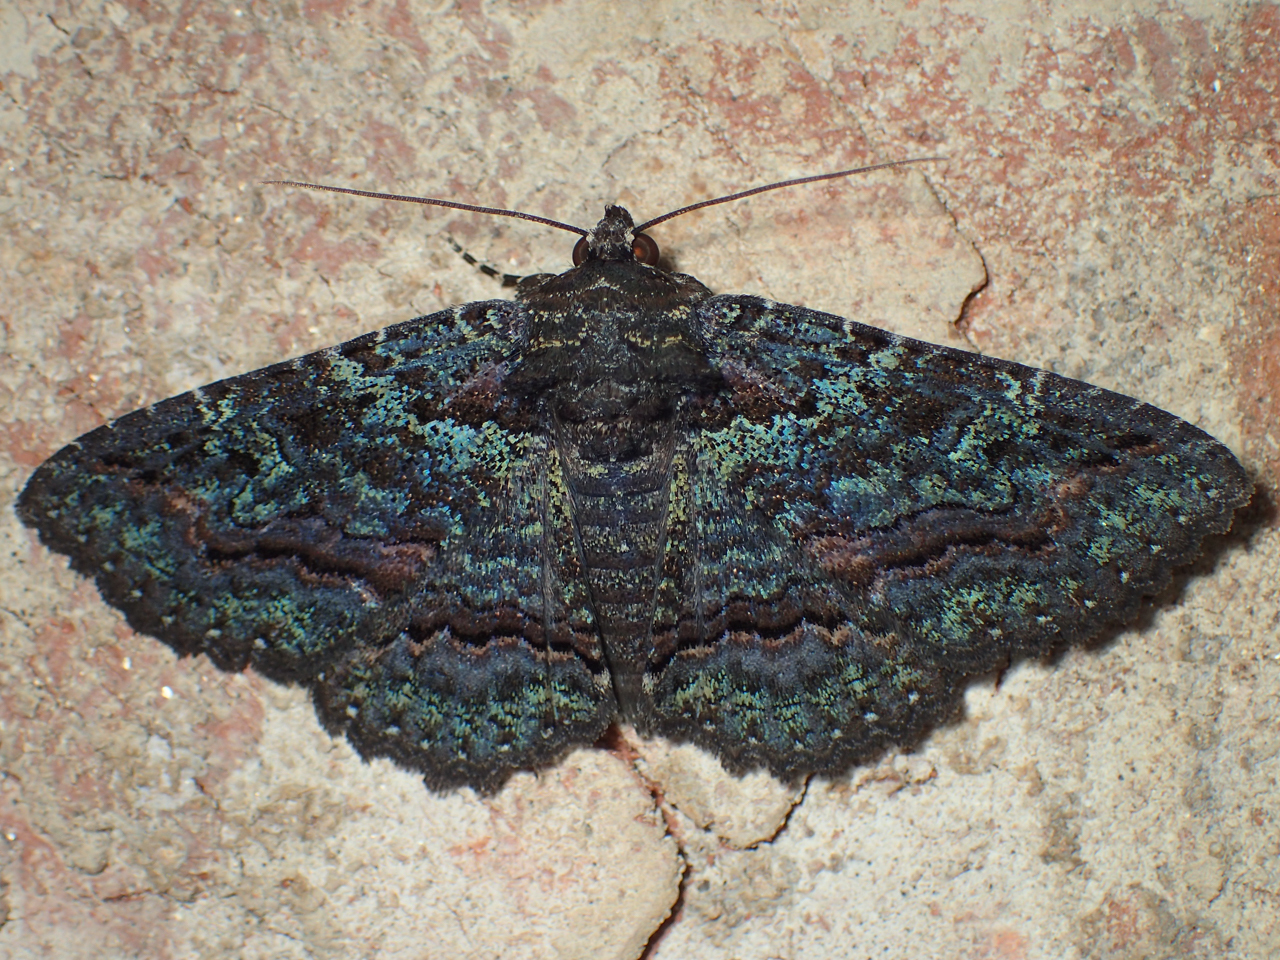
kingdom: Animalia
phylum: Arthropoda
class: Insecta
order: Lepidoptera
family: Erebidae
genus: Zale
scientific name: Zale aeruginosa
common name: Green-dusted zale moth
